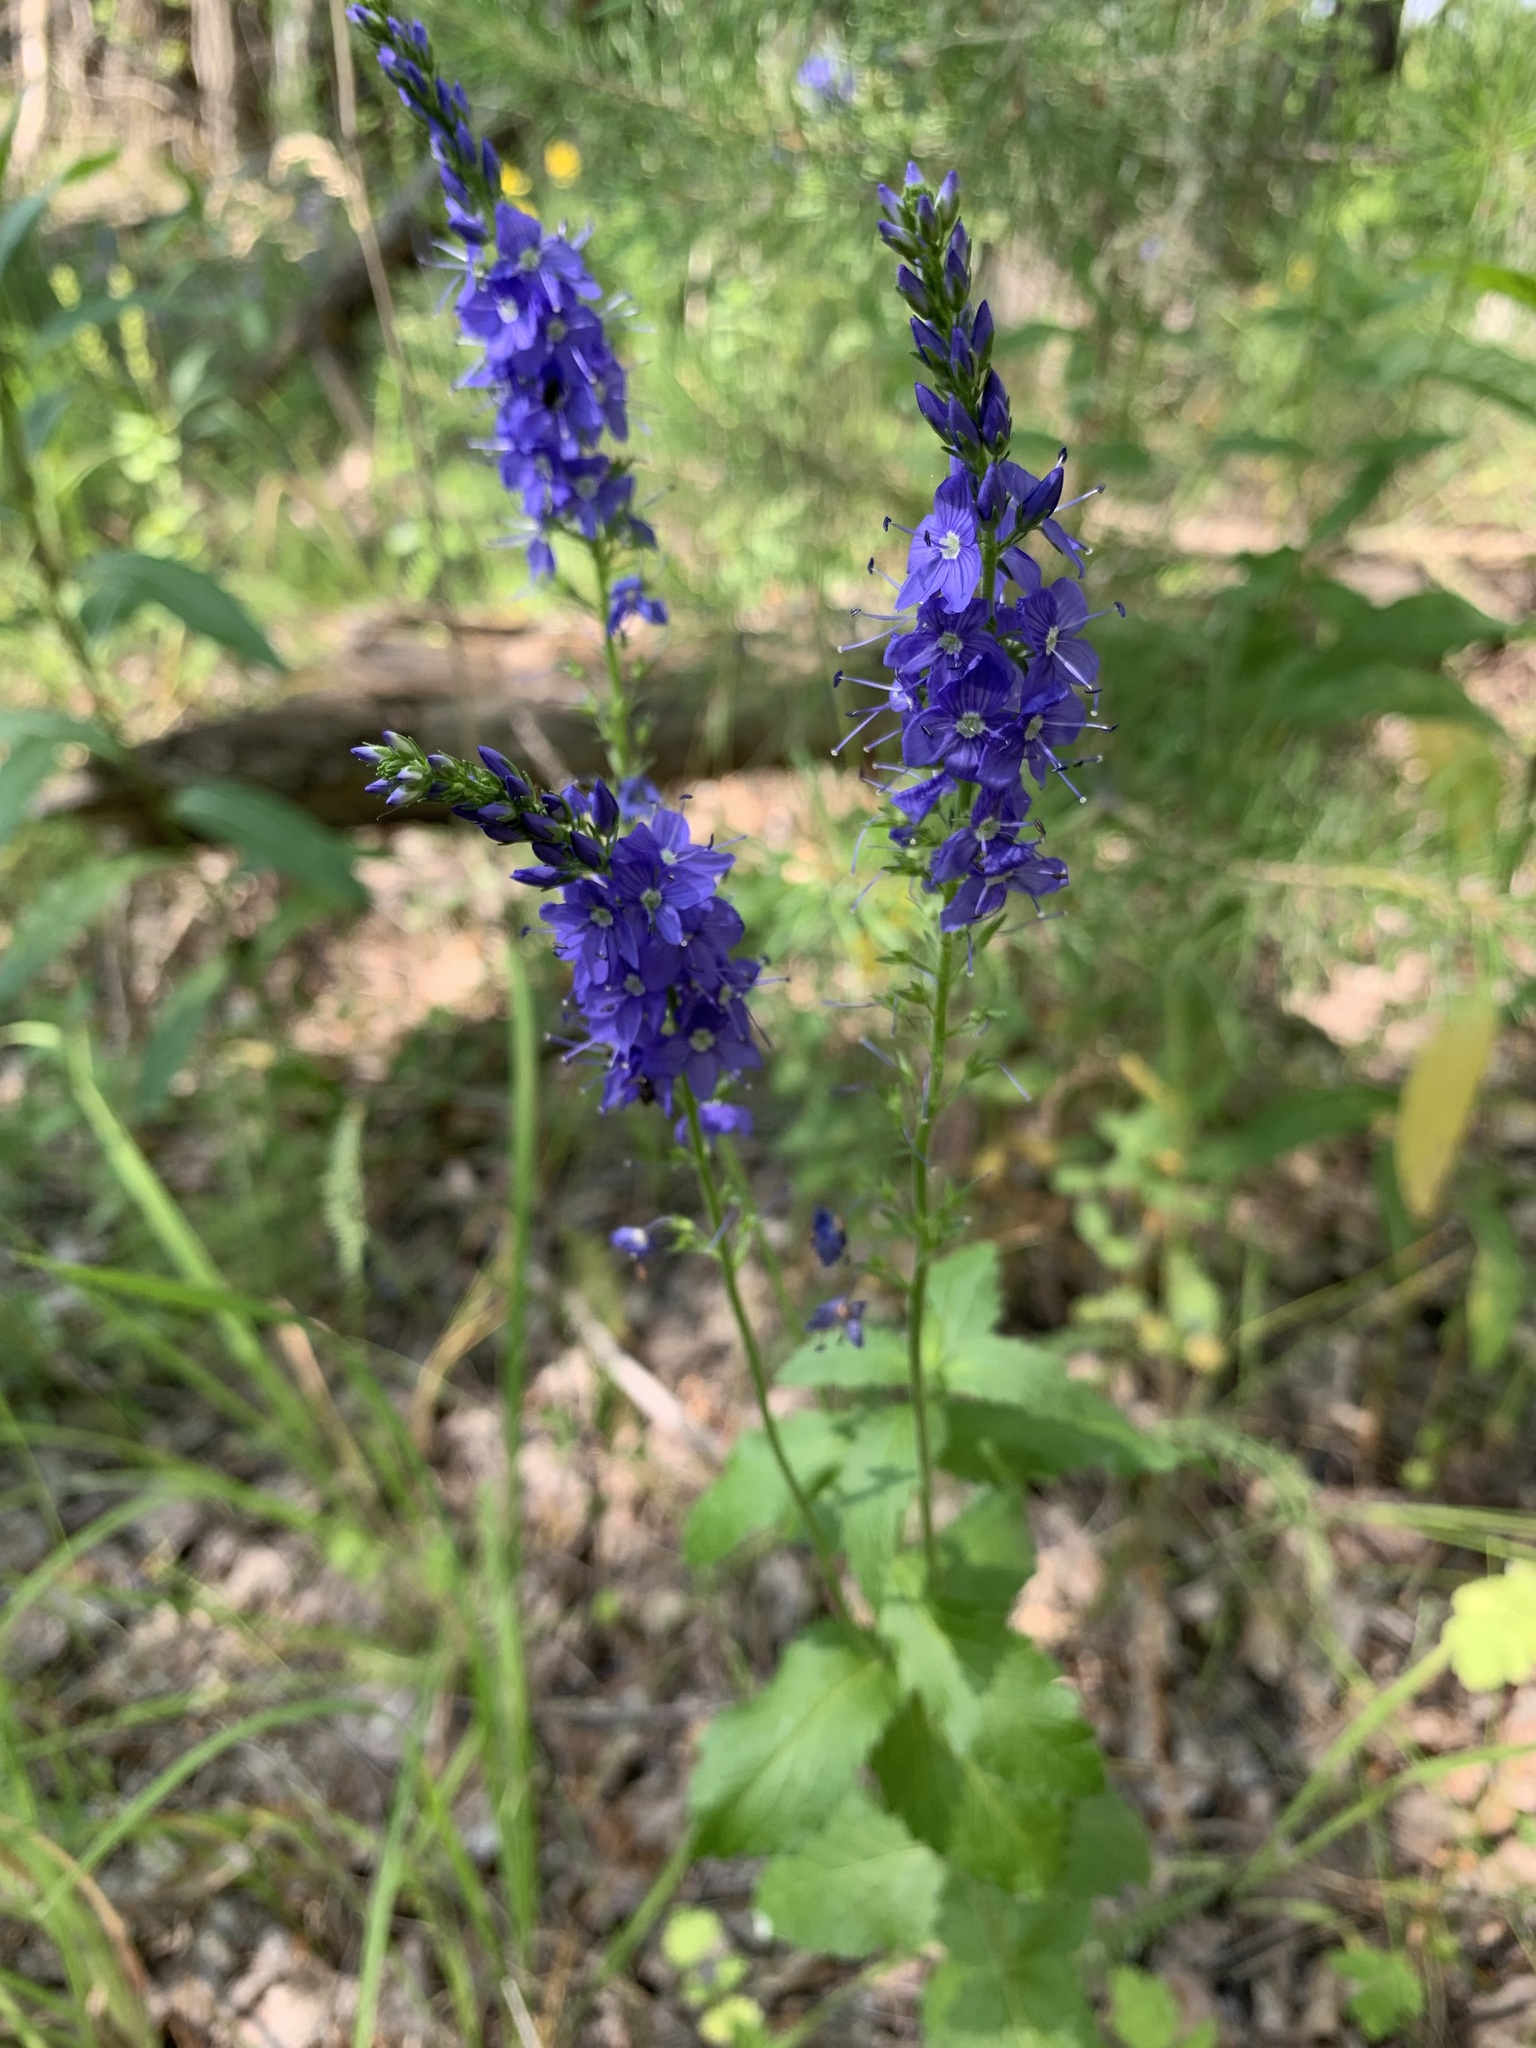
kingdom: Plantae
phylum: Tracheophyta
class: Magnoliopsida
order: Lamiales
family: Plantaginaceae
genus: Veronica
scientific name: Veronica teucrium
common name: Large speedwell
